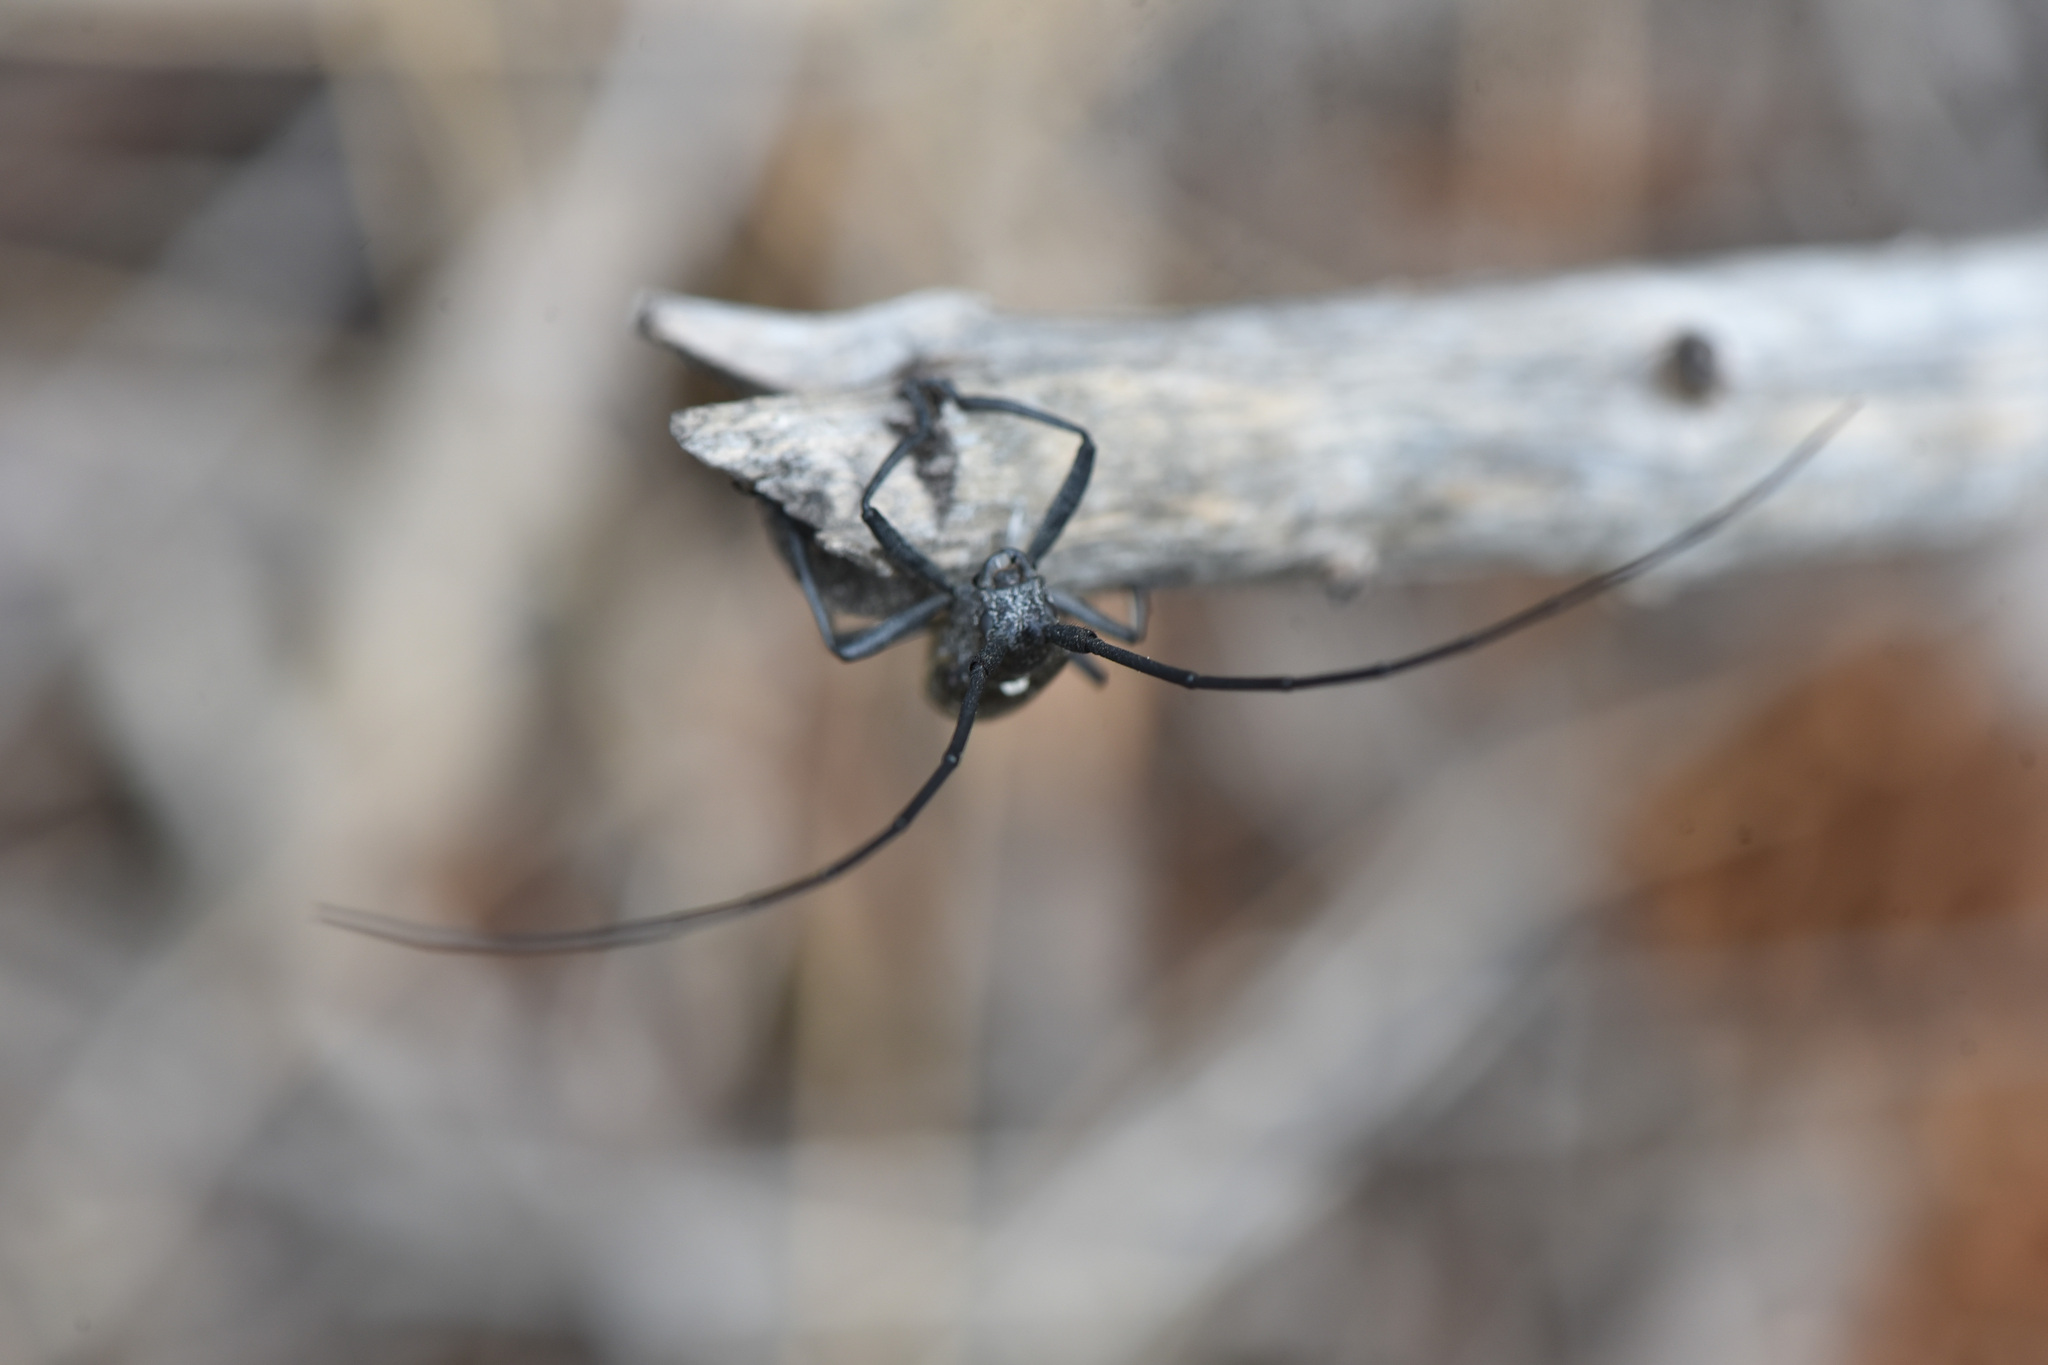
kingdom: Animalia
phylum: Arthropoda
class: Insecta
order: Coleoptera
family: Cerambycidae
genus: Monochamus
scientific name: Monochamus scutellatus
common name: White-spotted sawyer beetle
